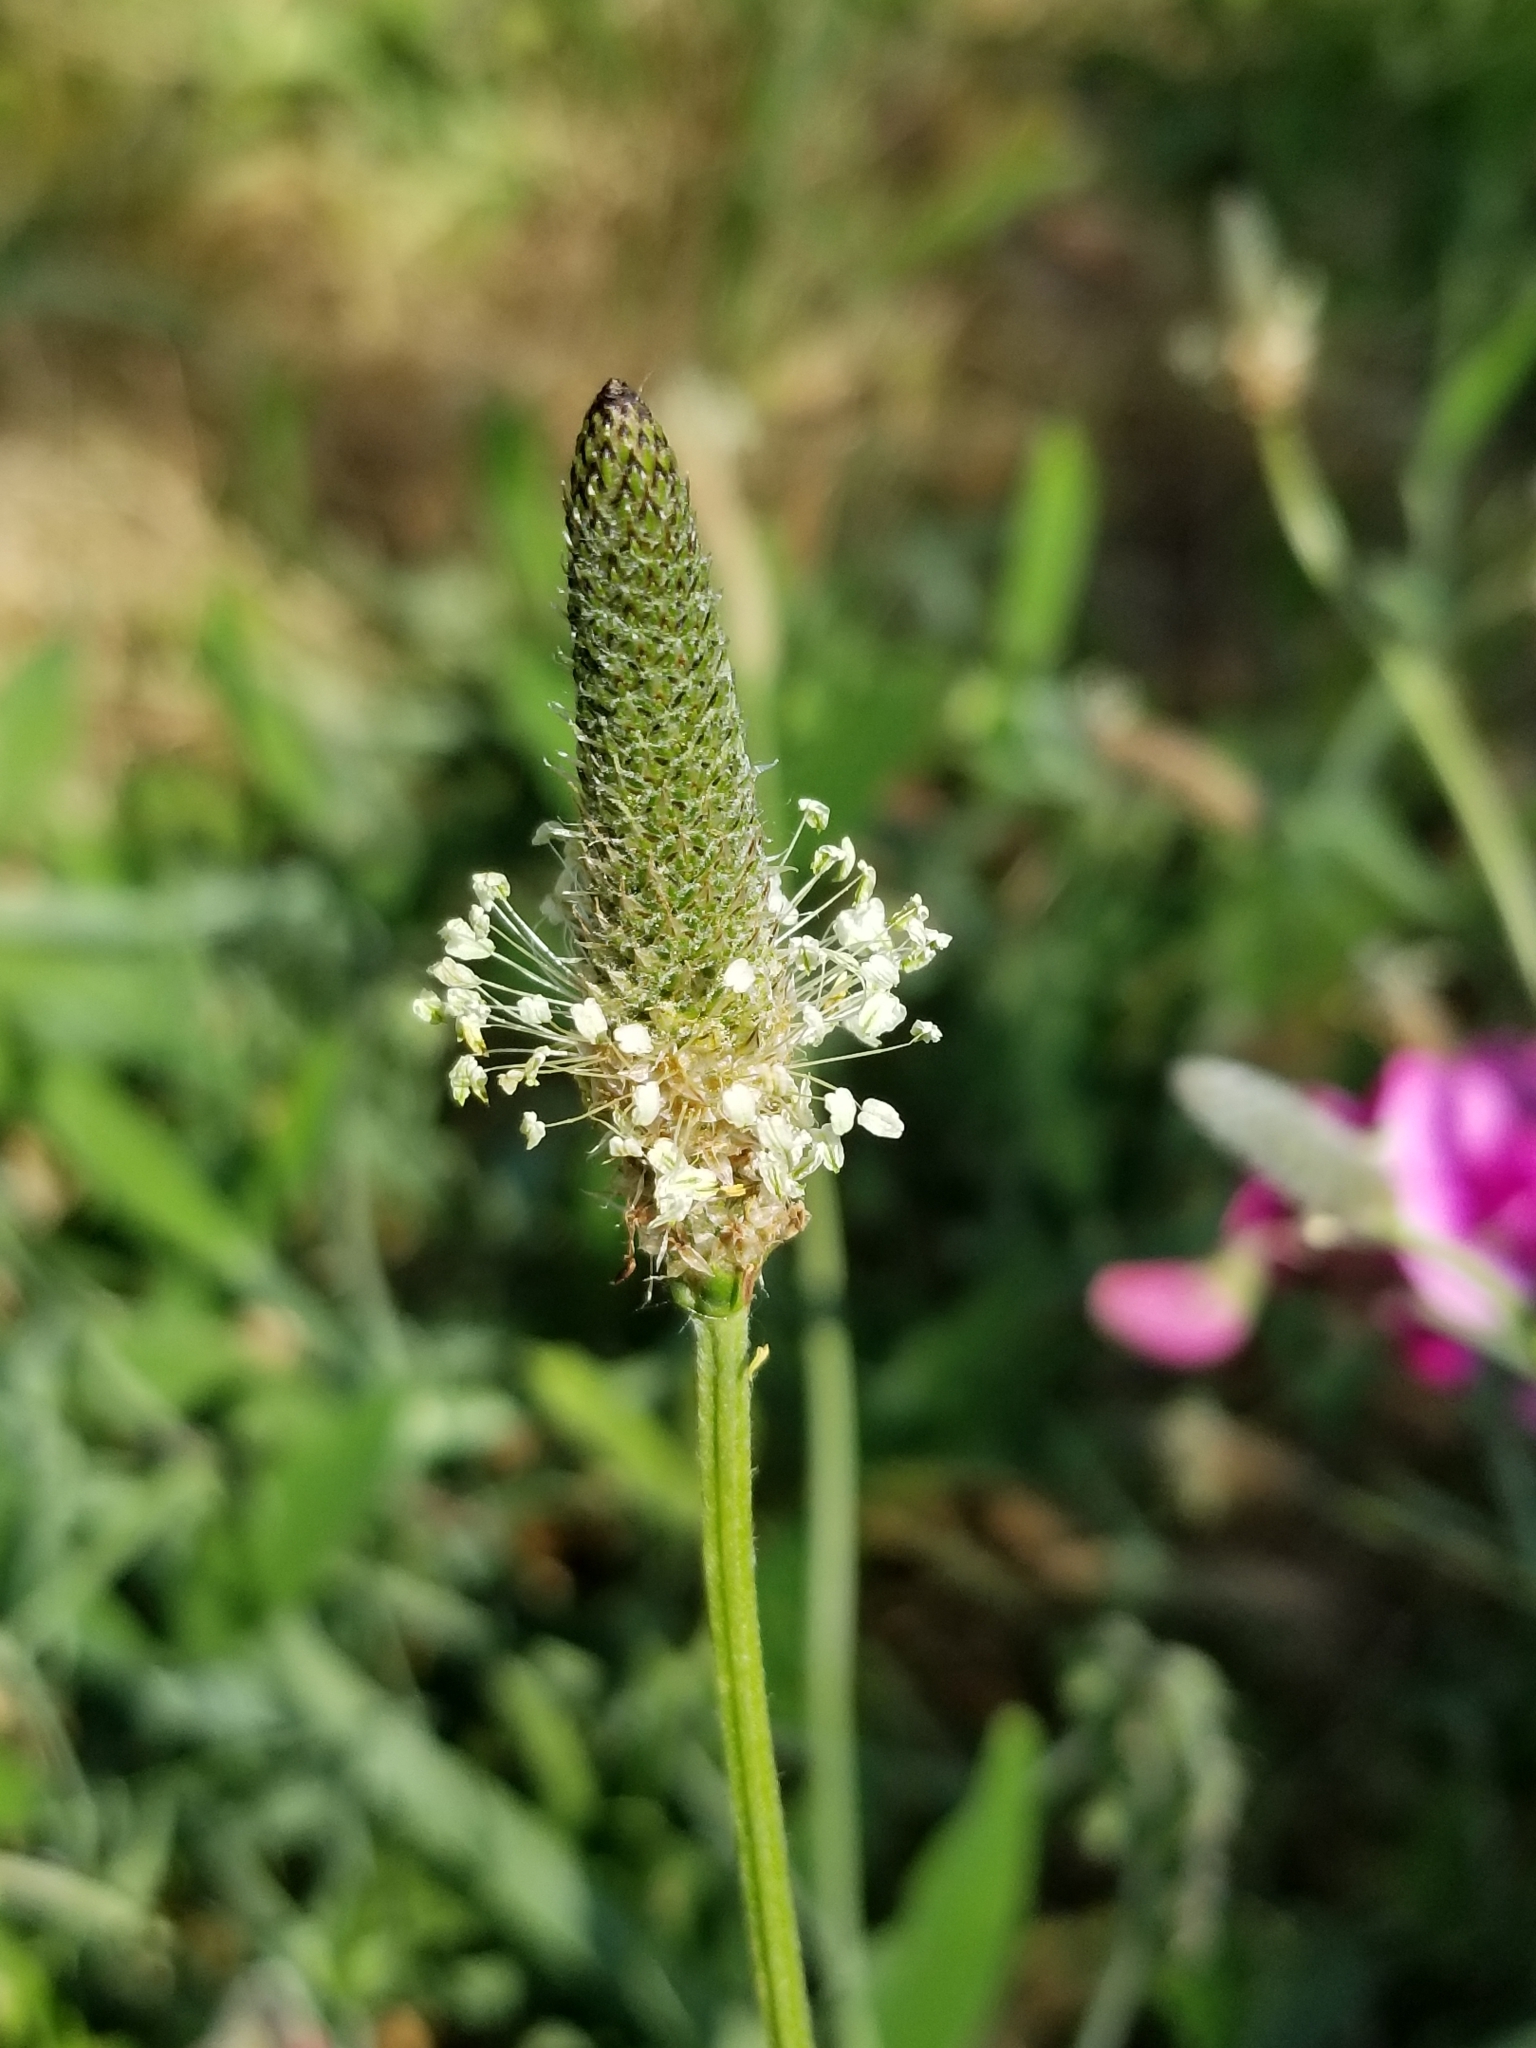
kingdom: Plantae
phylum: Tracheophyta
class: Magnoliopsida
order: Lamiales
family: Plantaginaceae
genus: Plantago
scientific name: Plantago lanceolata
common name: Ribwort plantain
